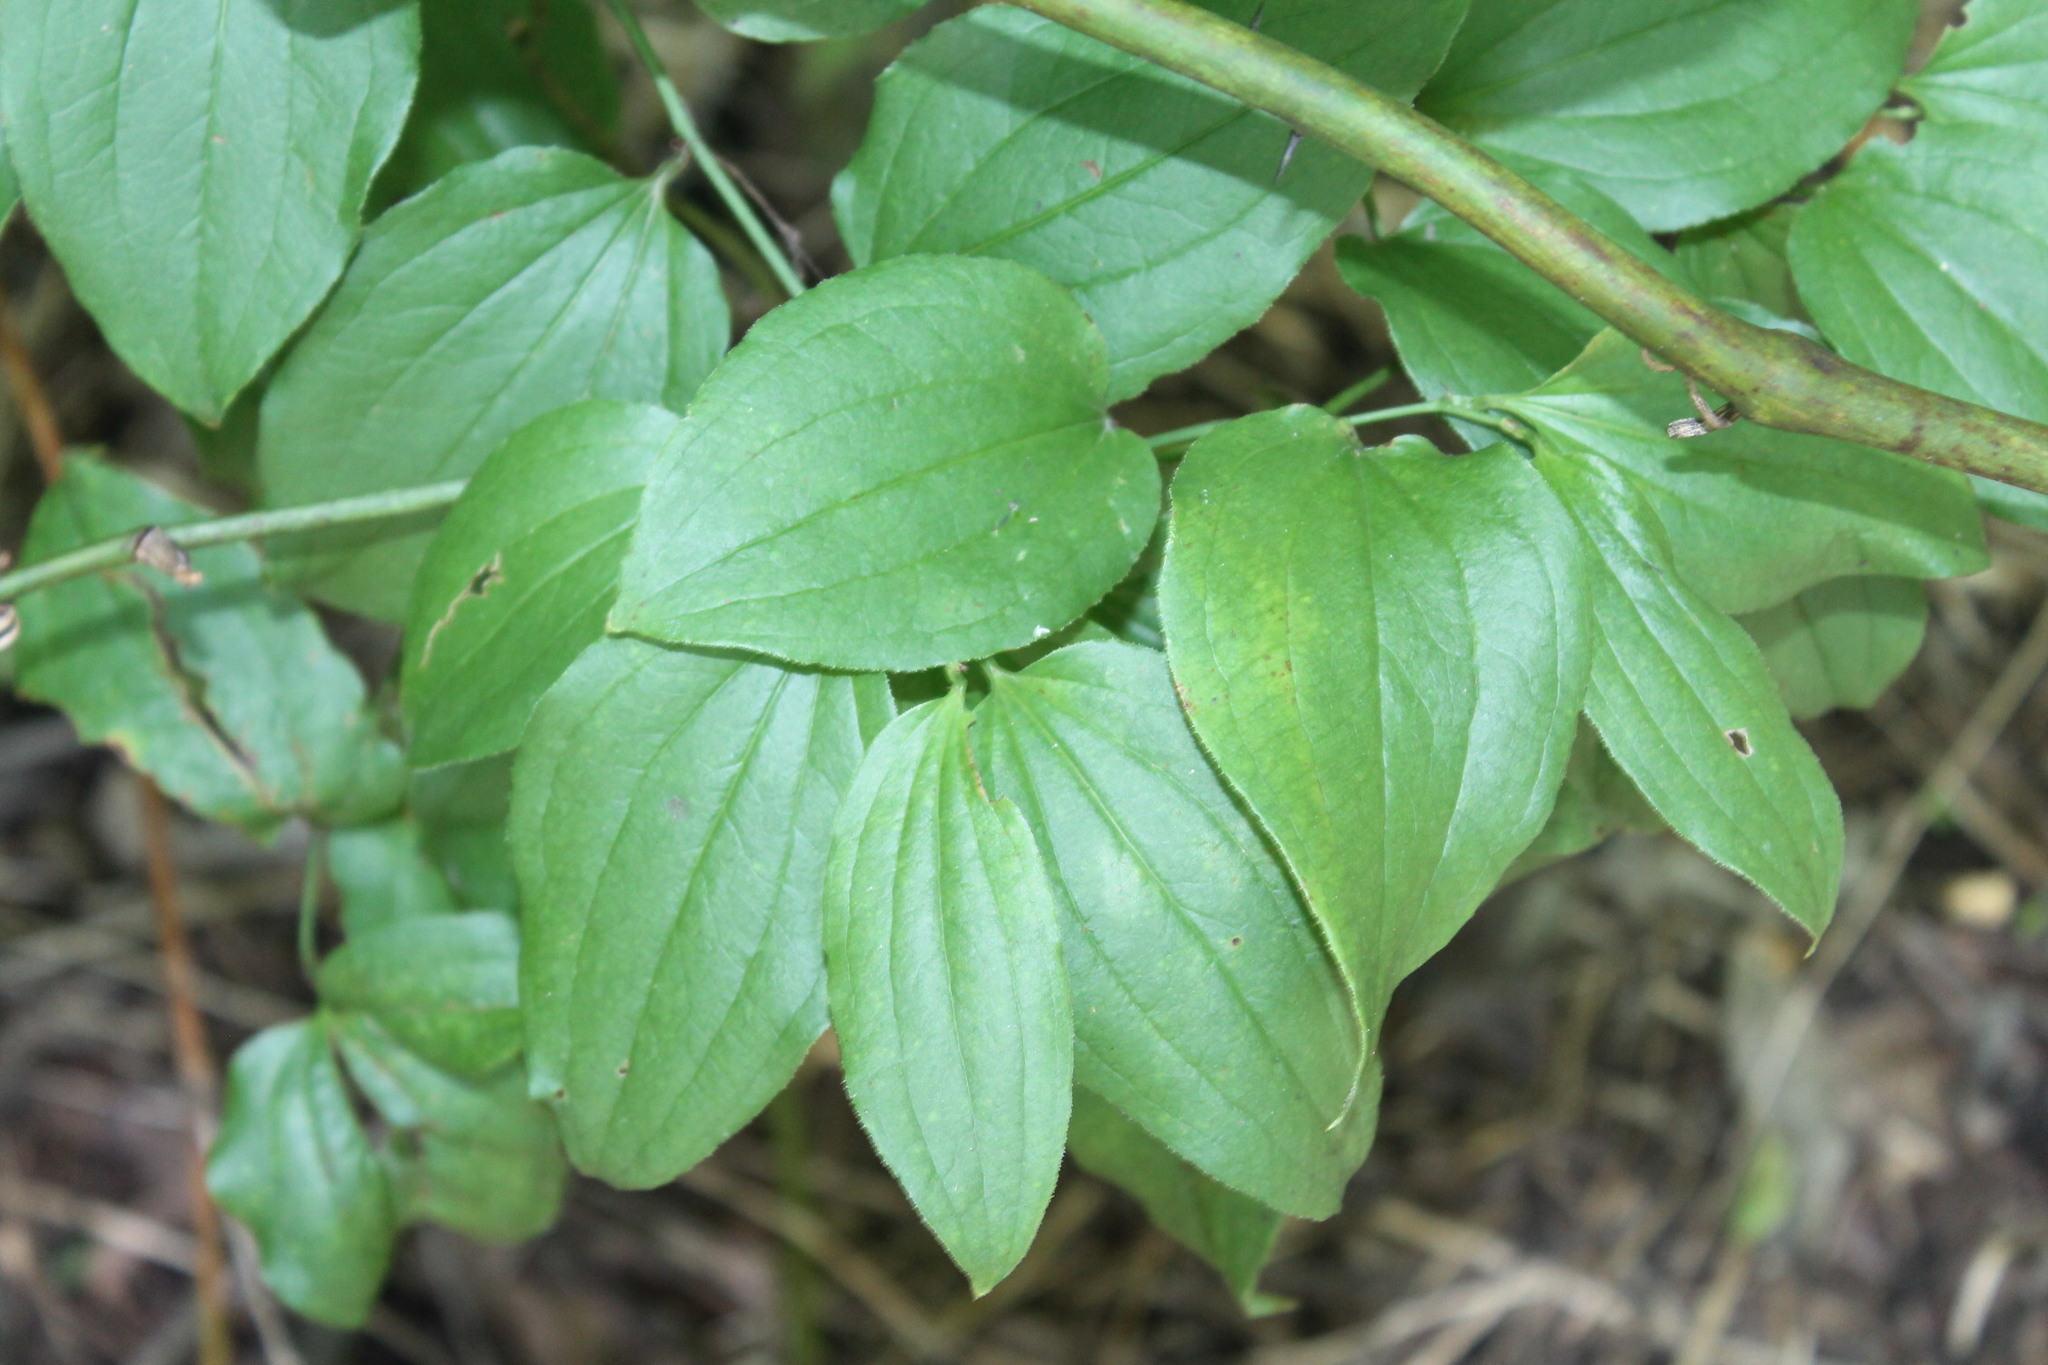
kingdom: Plantae
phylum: Tracheophyta
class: Liliopsida
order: Liliales
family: Smilacaceae
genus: Smilax
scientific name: Smilax tamnoides
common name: Hellfetter
